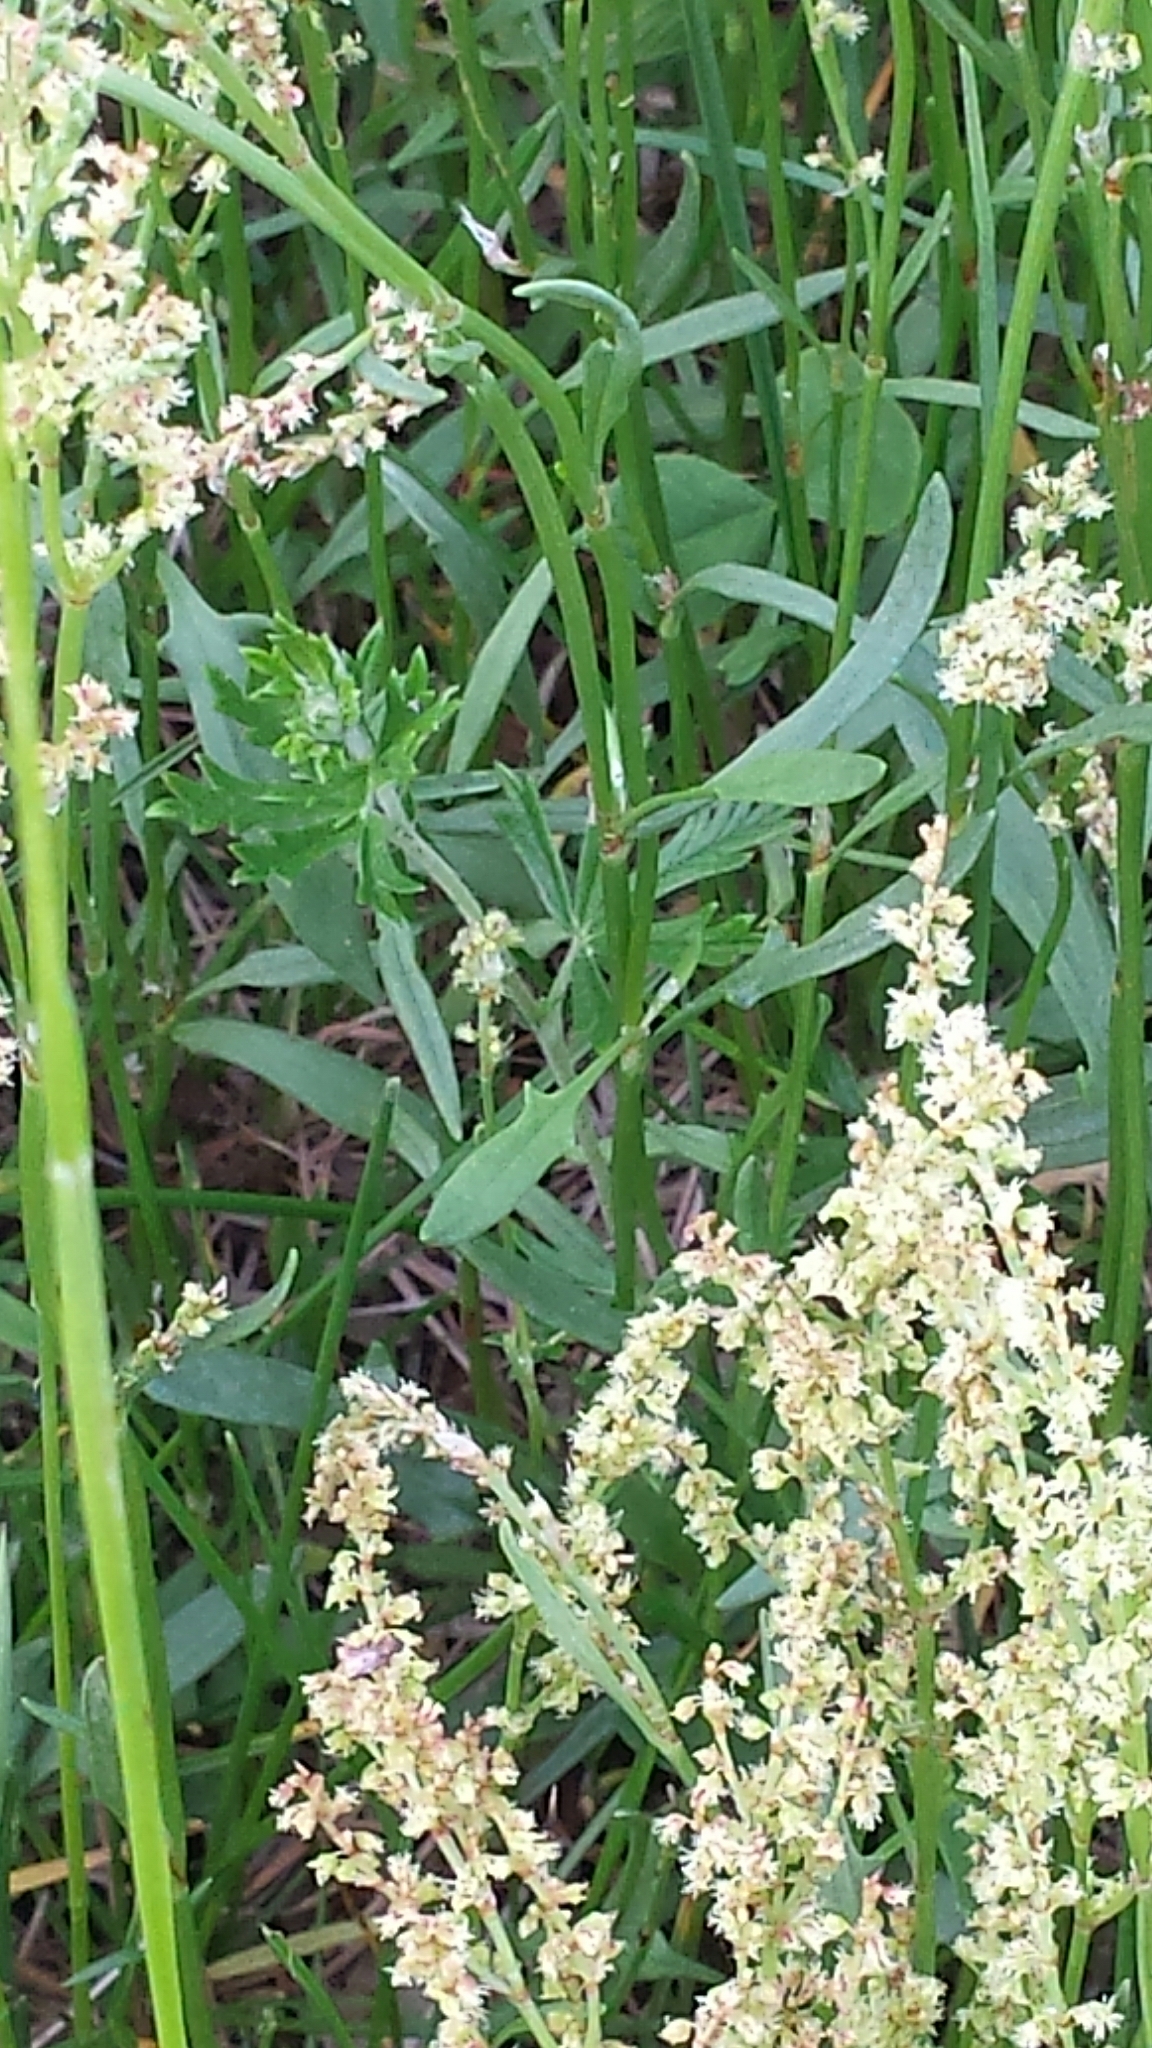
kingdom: Plantae
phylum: Tracheophyta
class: Magnoliopsida
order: Caryophyllales
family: Polygonaceae
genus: Rumex
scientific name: Rumex acetosella
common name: Common sheep sorrel
